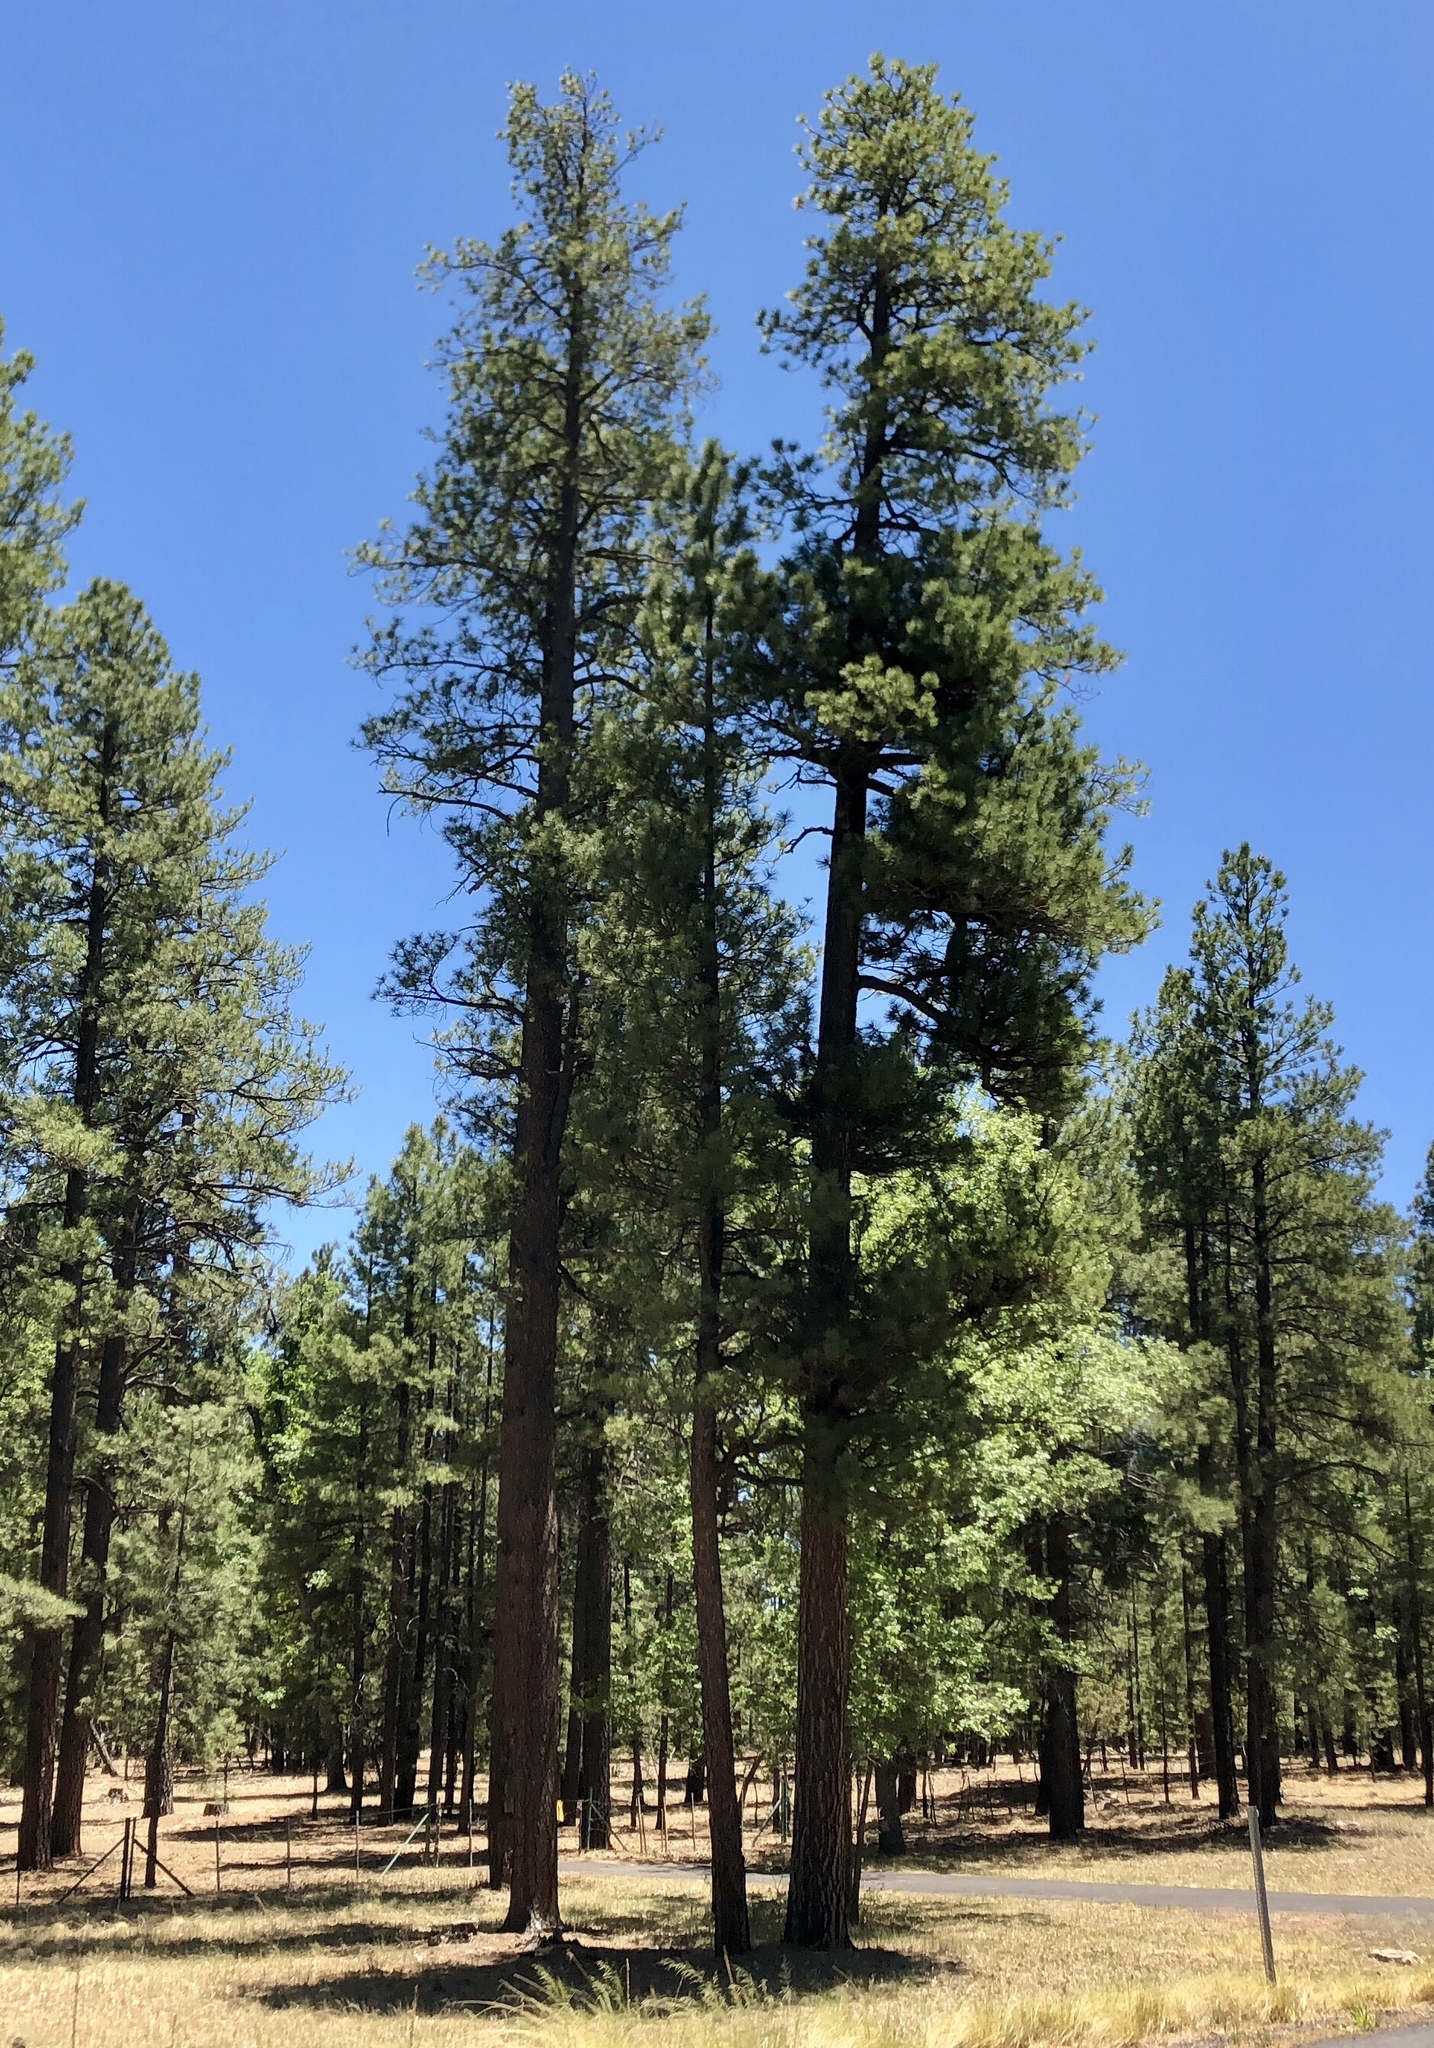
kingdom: Plantae
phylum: Tracheophyta
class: Pinopsida
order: Pinales
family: Pinaceae
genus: Pinus
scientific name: Pinus ponderosa
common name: Western yellow-pine
